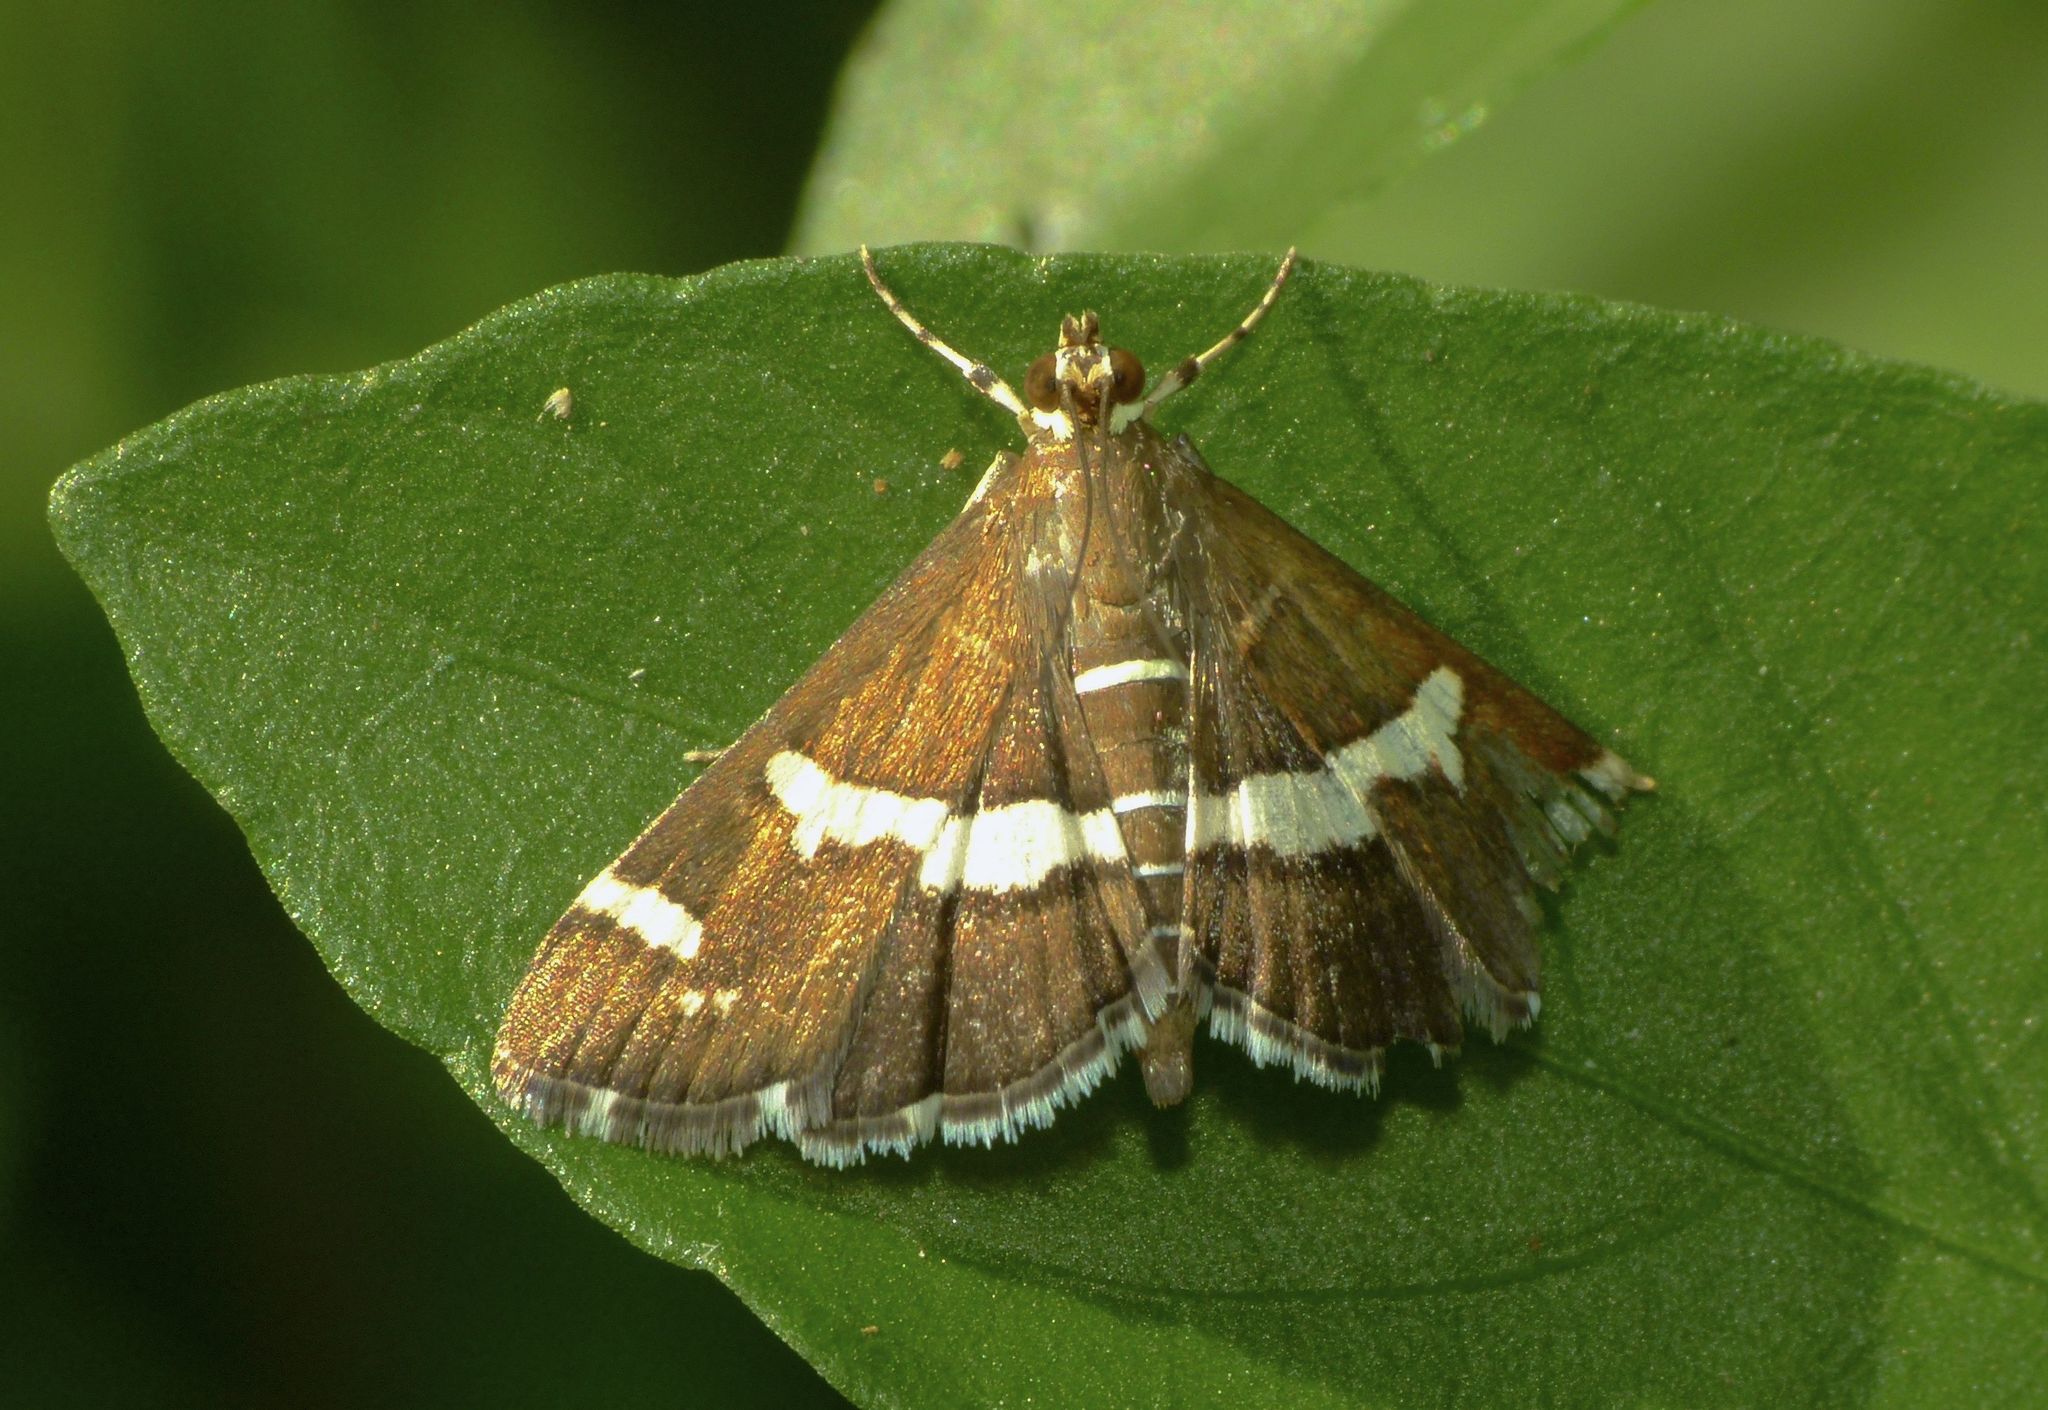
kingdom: Animalia
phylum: Arthropoda
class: Insecta
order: Lepidoptera
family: Crambidae
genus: Spoladea
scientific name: Spoladea recurvalis
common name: Beet webworm moth
